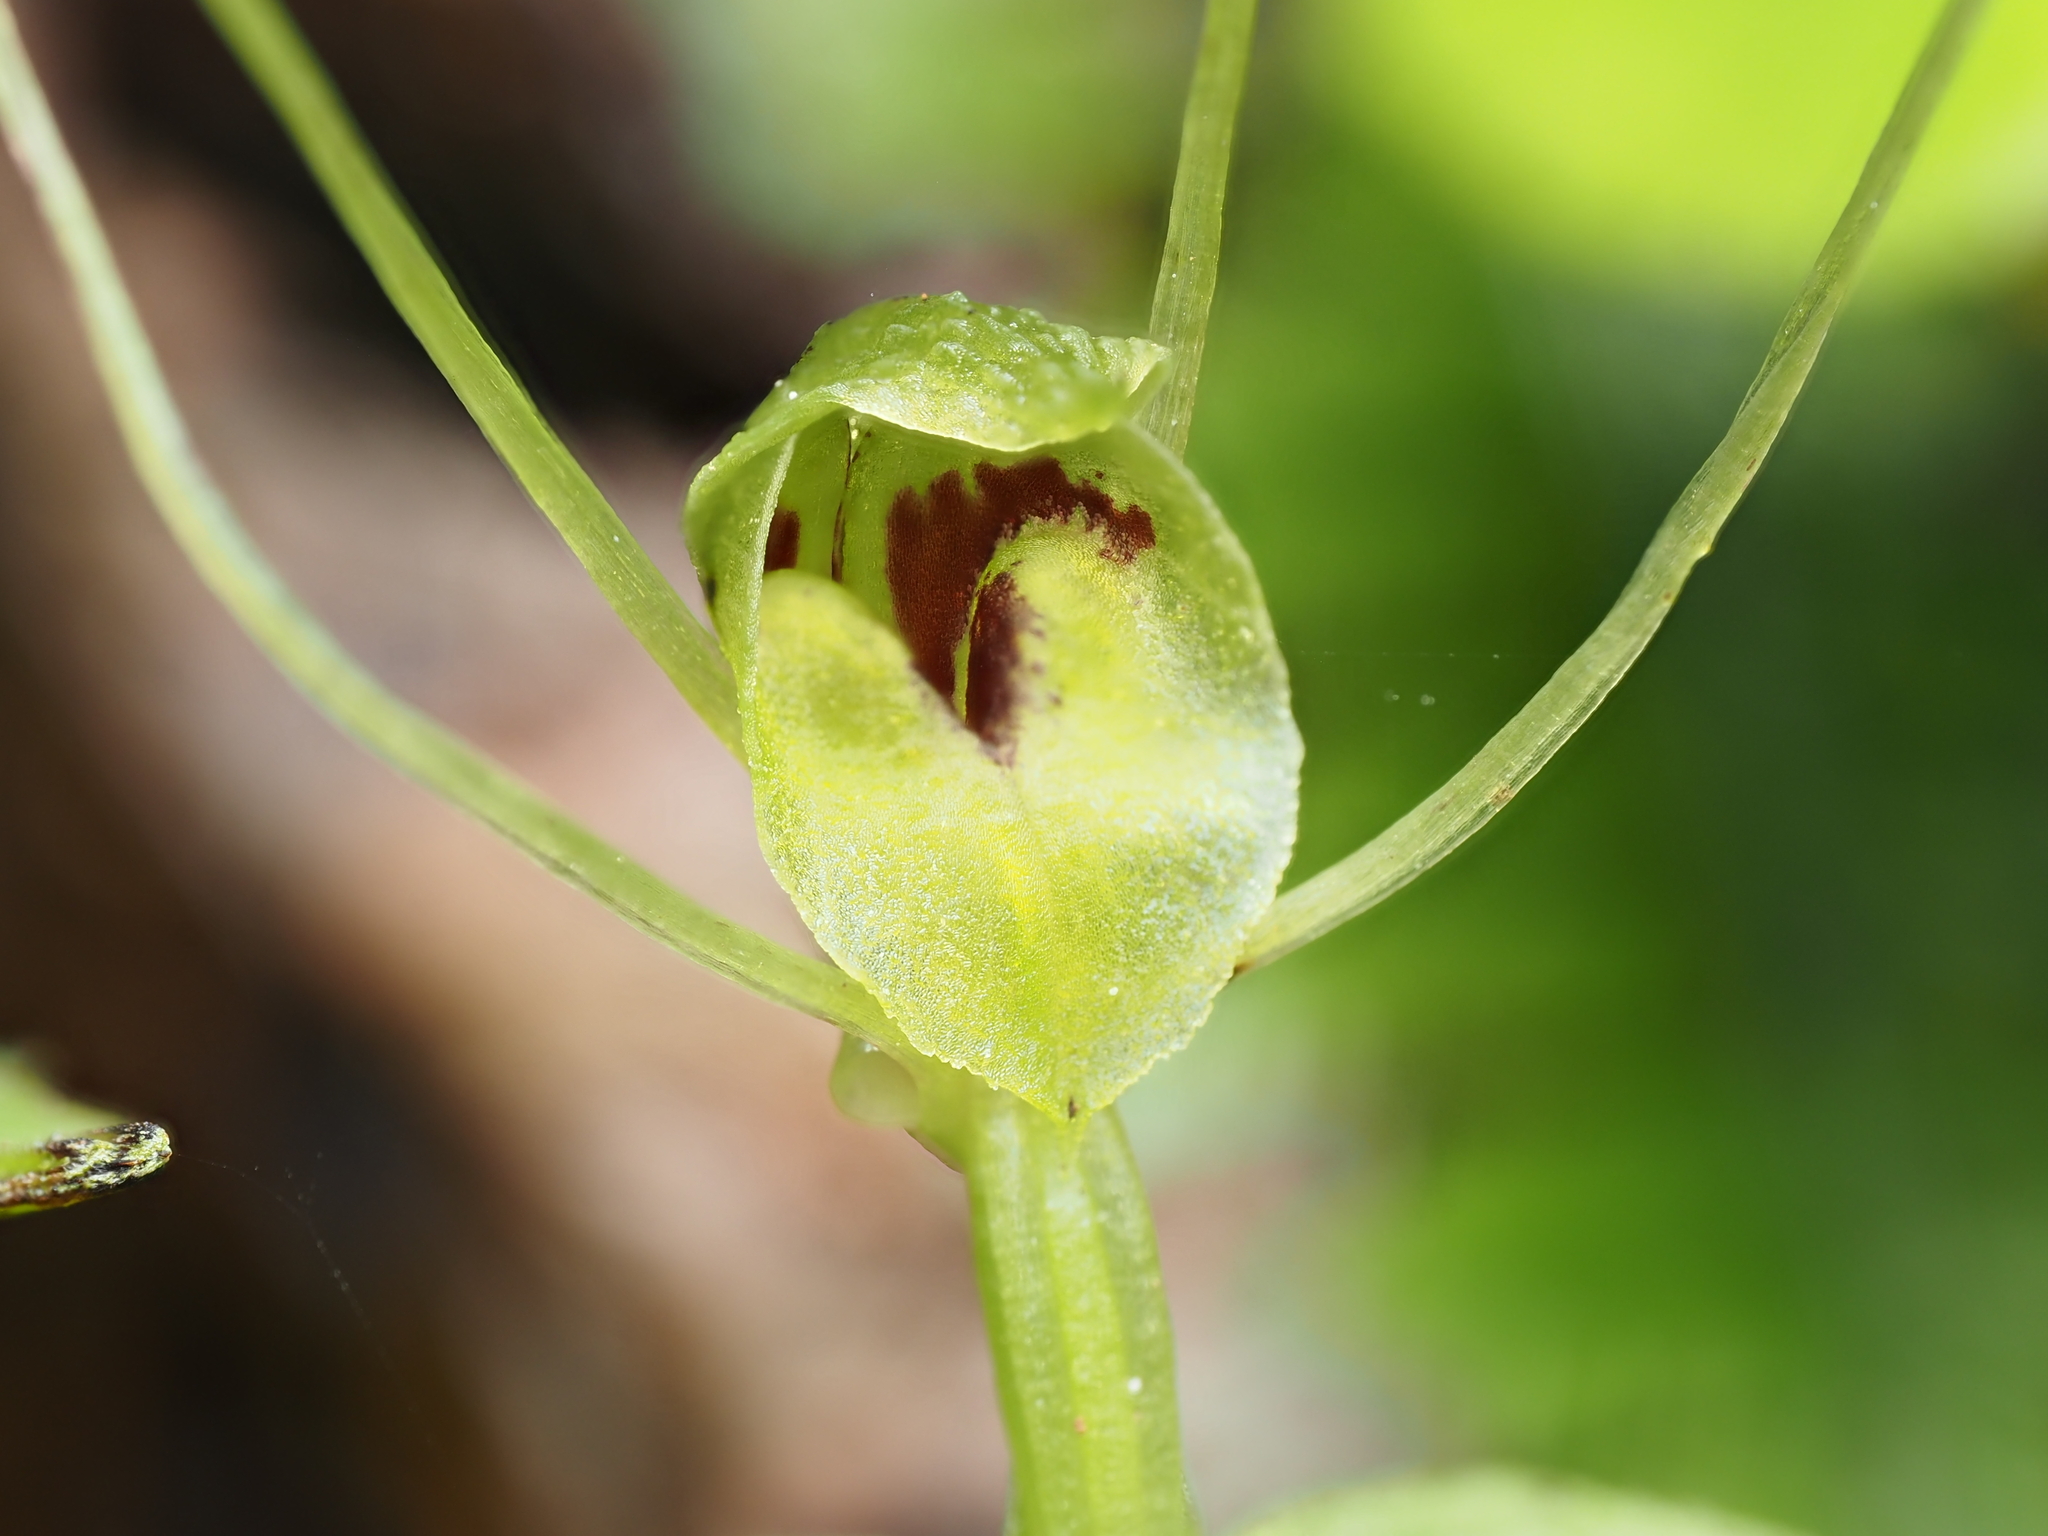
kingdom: Plantae
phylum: Tracheophyta
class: Liliopsida
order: Asparagales
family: Orchidaceae
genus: Corybas
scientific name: Corybas papa
